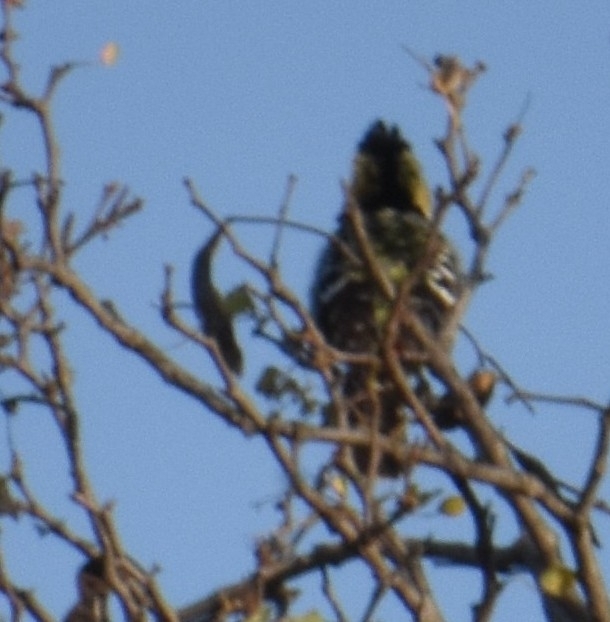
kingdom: Animalia
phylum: Chordata
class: Aves
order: Piciformes
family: Lybiidae
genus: Trachyphonus
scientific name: Trachyphonus vaillantii
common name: Crested barbet
